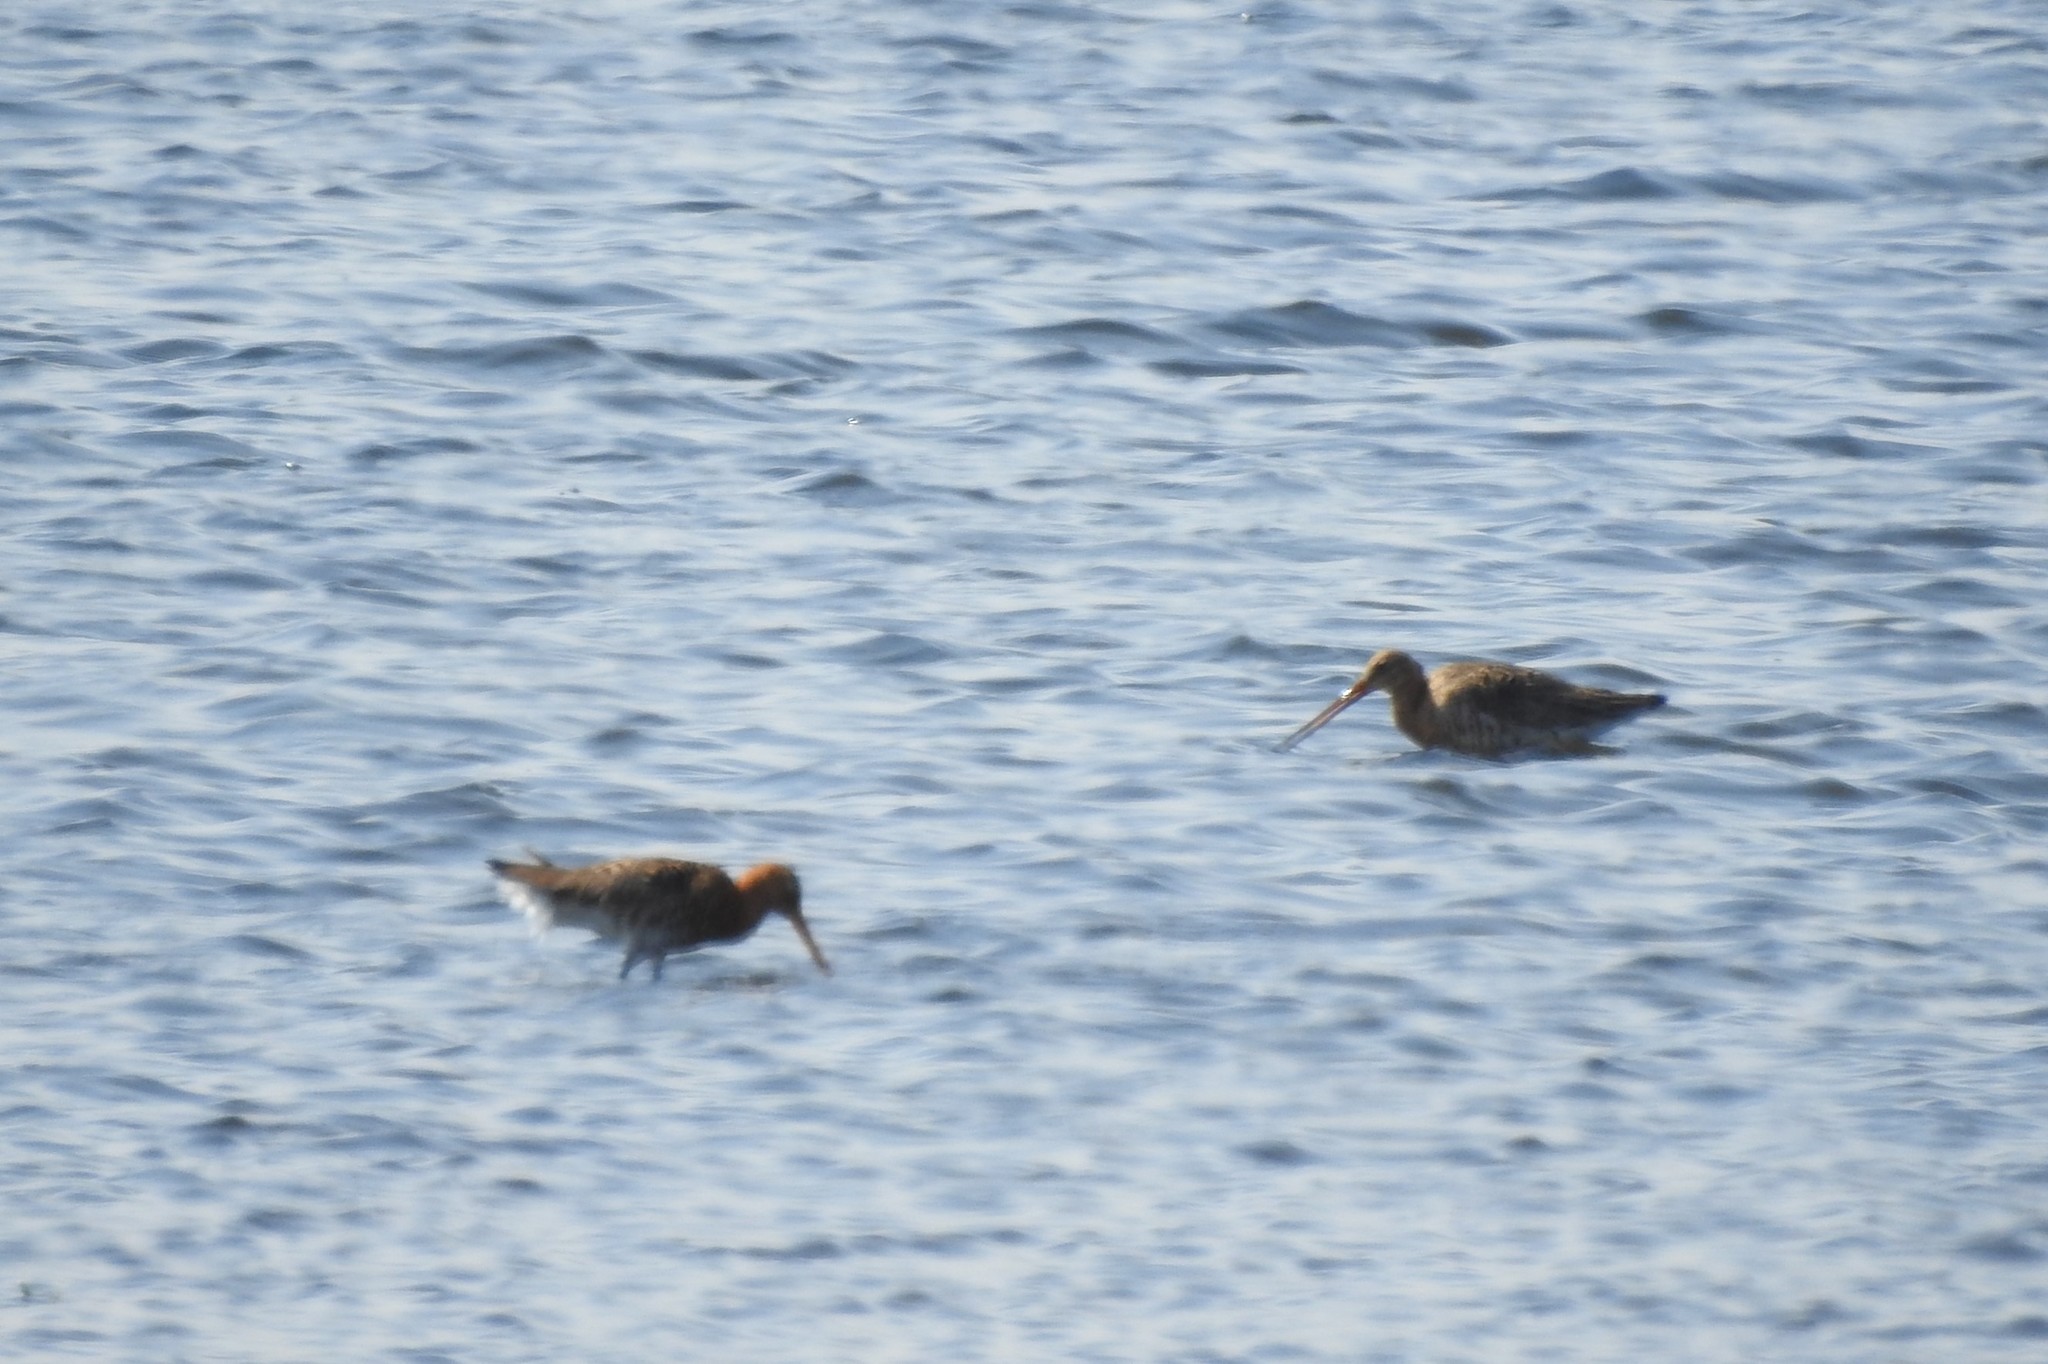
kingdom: Animalia
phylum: Chordata
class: Aves
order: Charadriiformes
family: Scolopacidae
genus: Limosa
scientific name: Limosa limosa
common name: Black-tailed godwit
